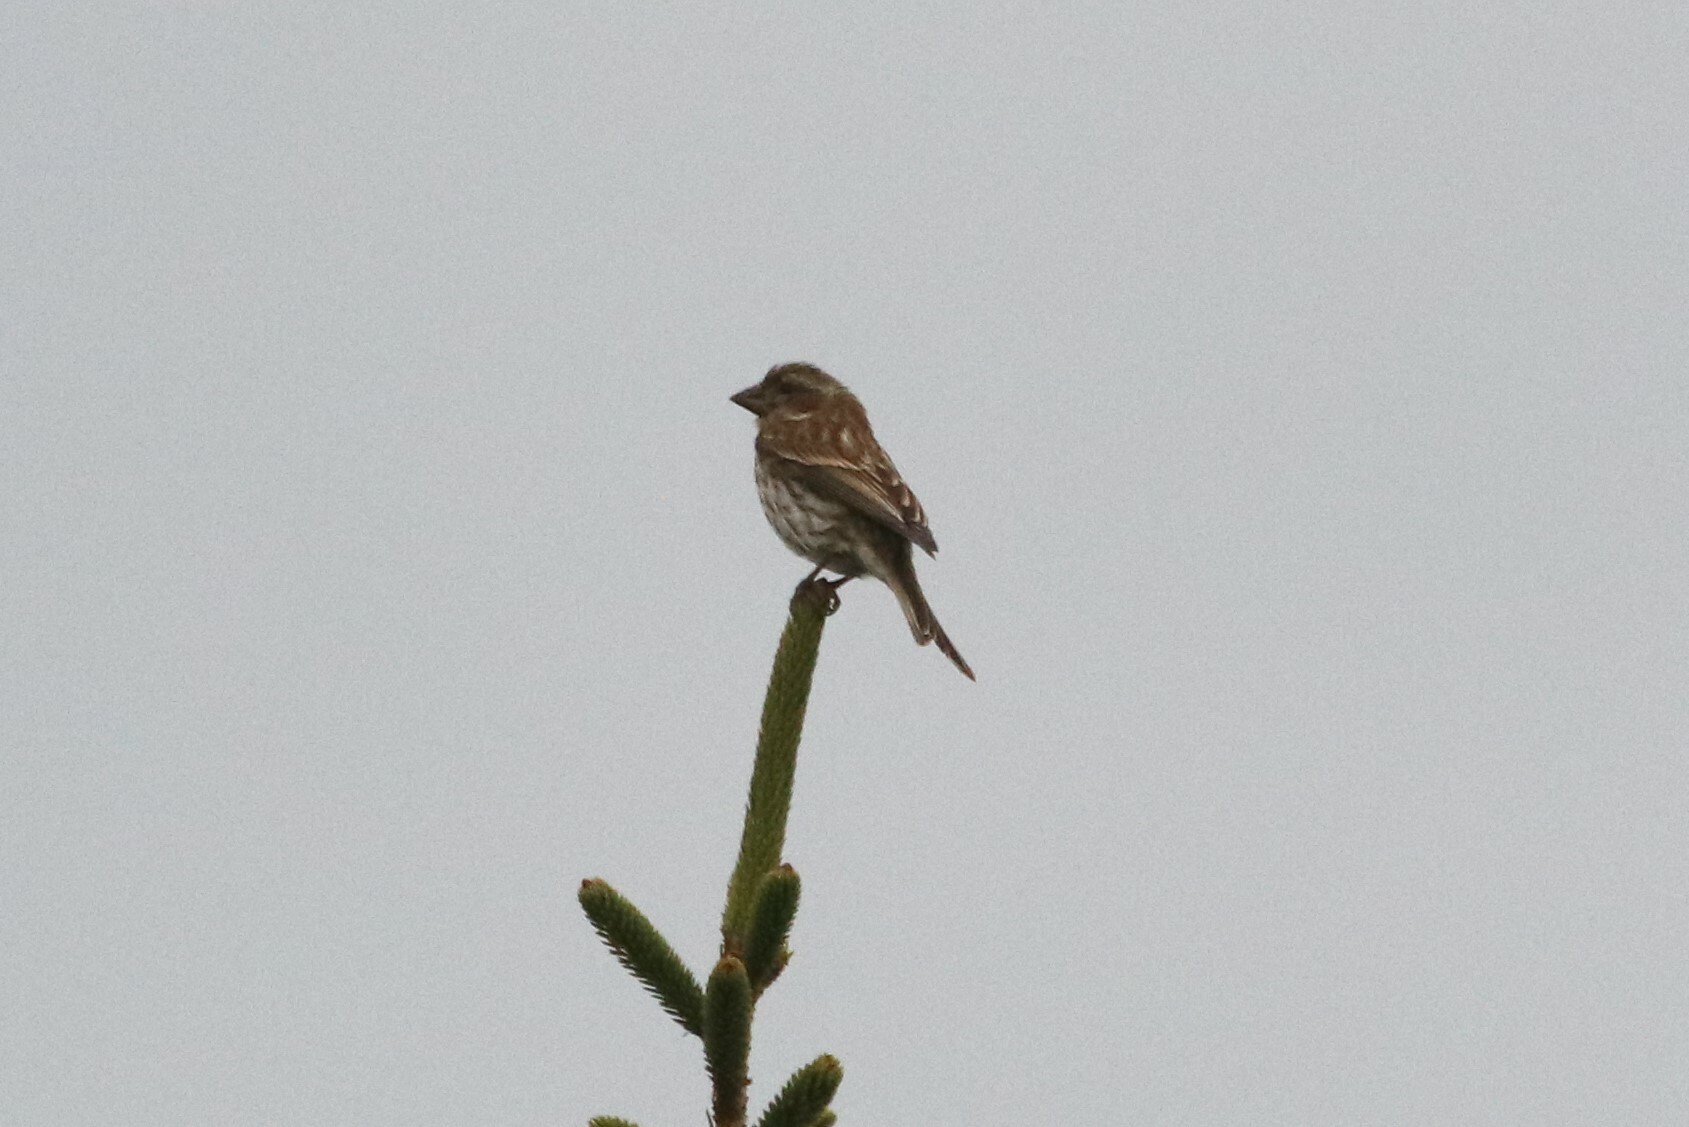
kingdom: Animalia
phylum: Chordata
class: Aves
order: Passeriformes
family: Fringillidae
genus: Haemorhous
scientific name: Haemorhous purpureus
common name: Purple finch
